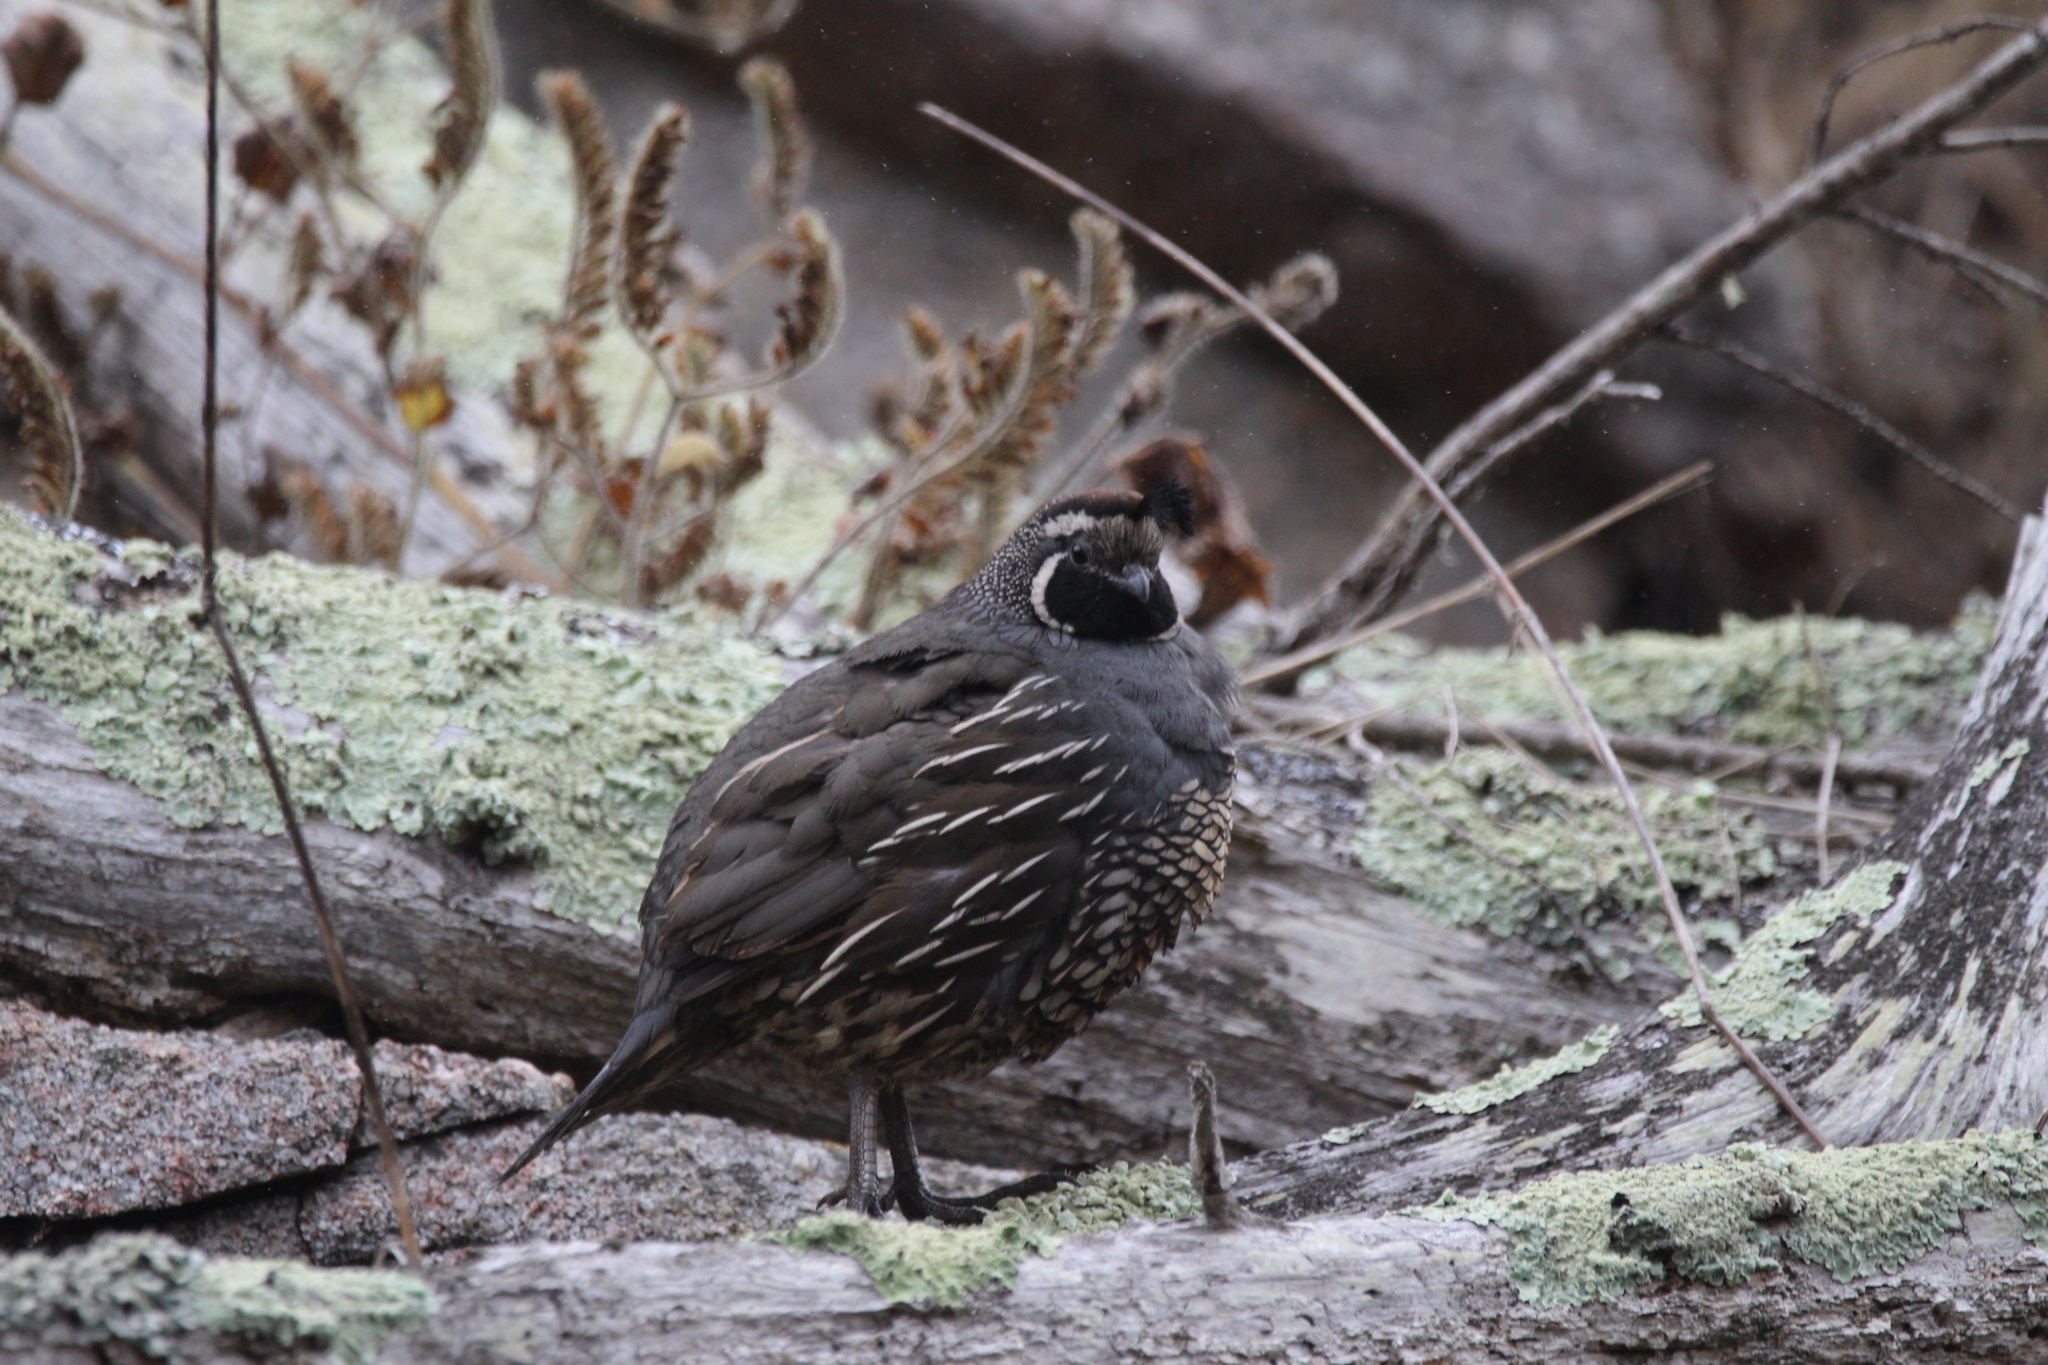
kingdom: Animalia
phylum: Chordata
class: Aves
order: Galliformes
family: Odontophoridae
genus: Callipepla
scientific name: Callipepla californica
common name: California quail
